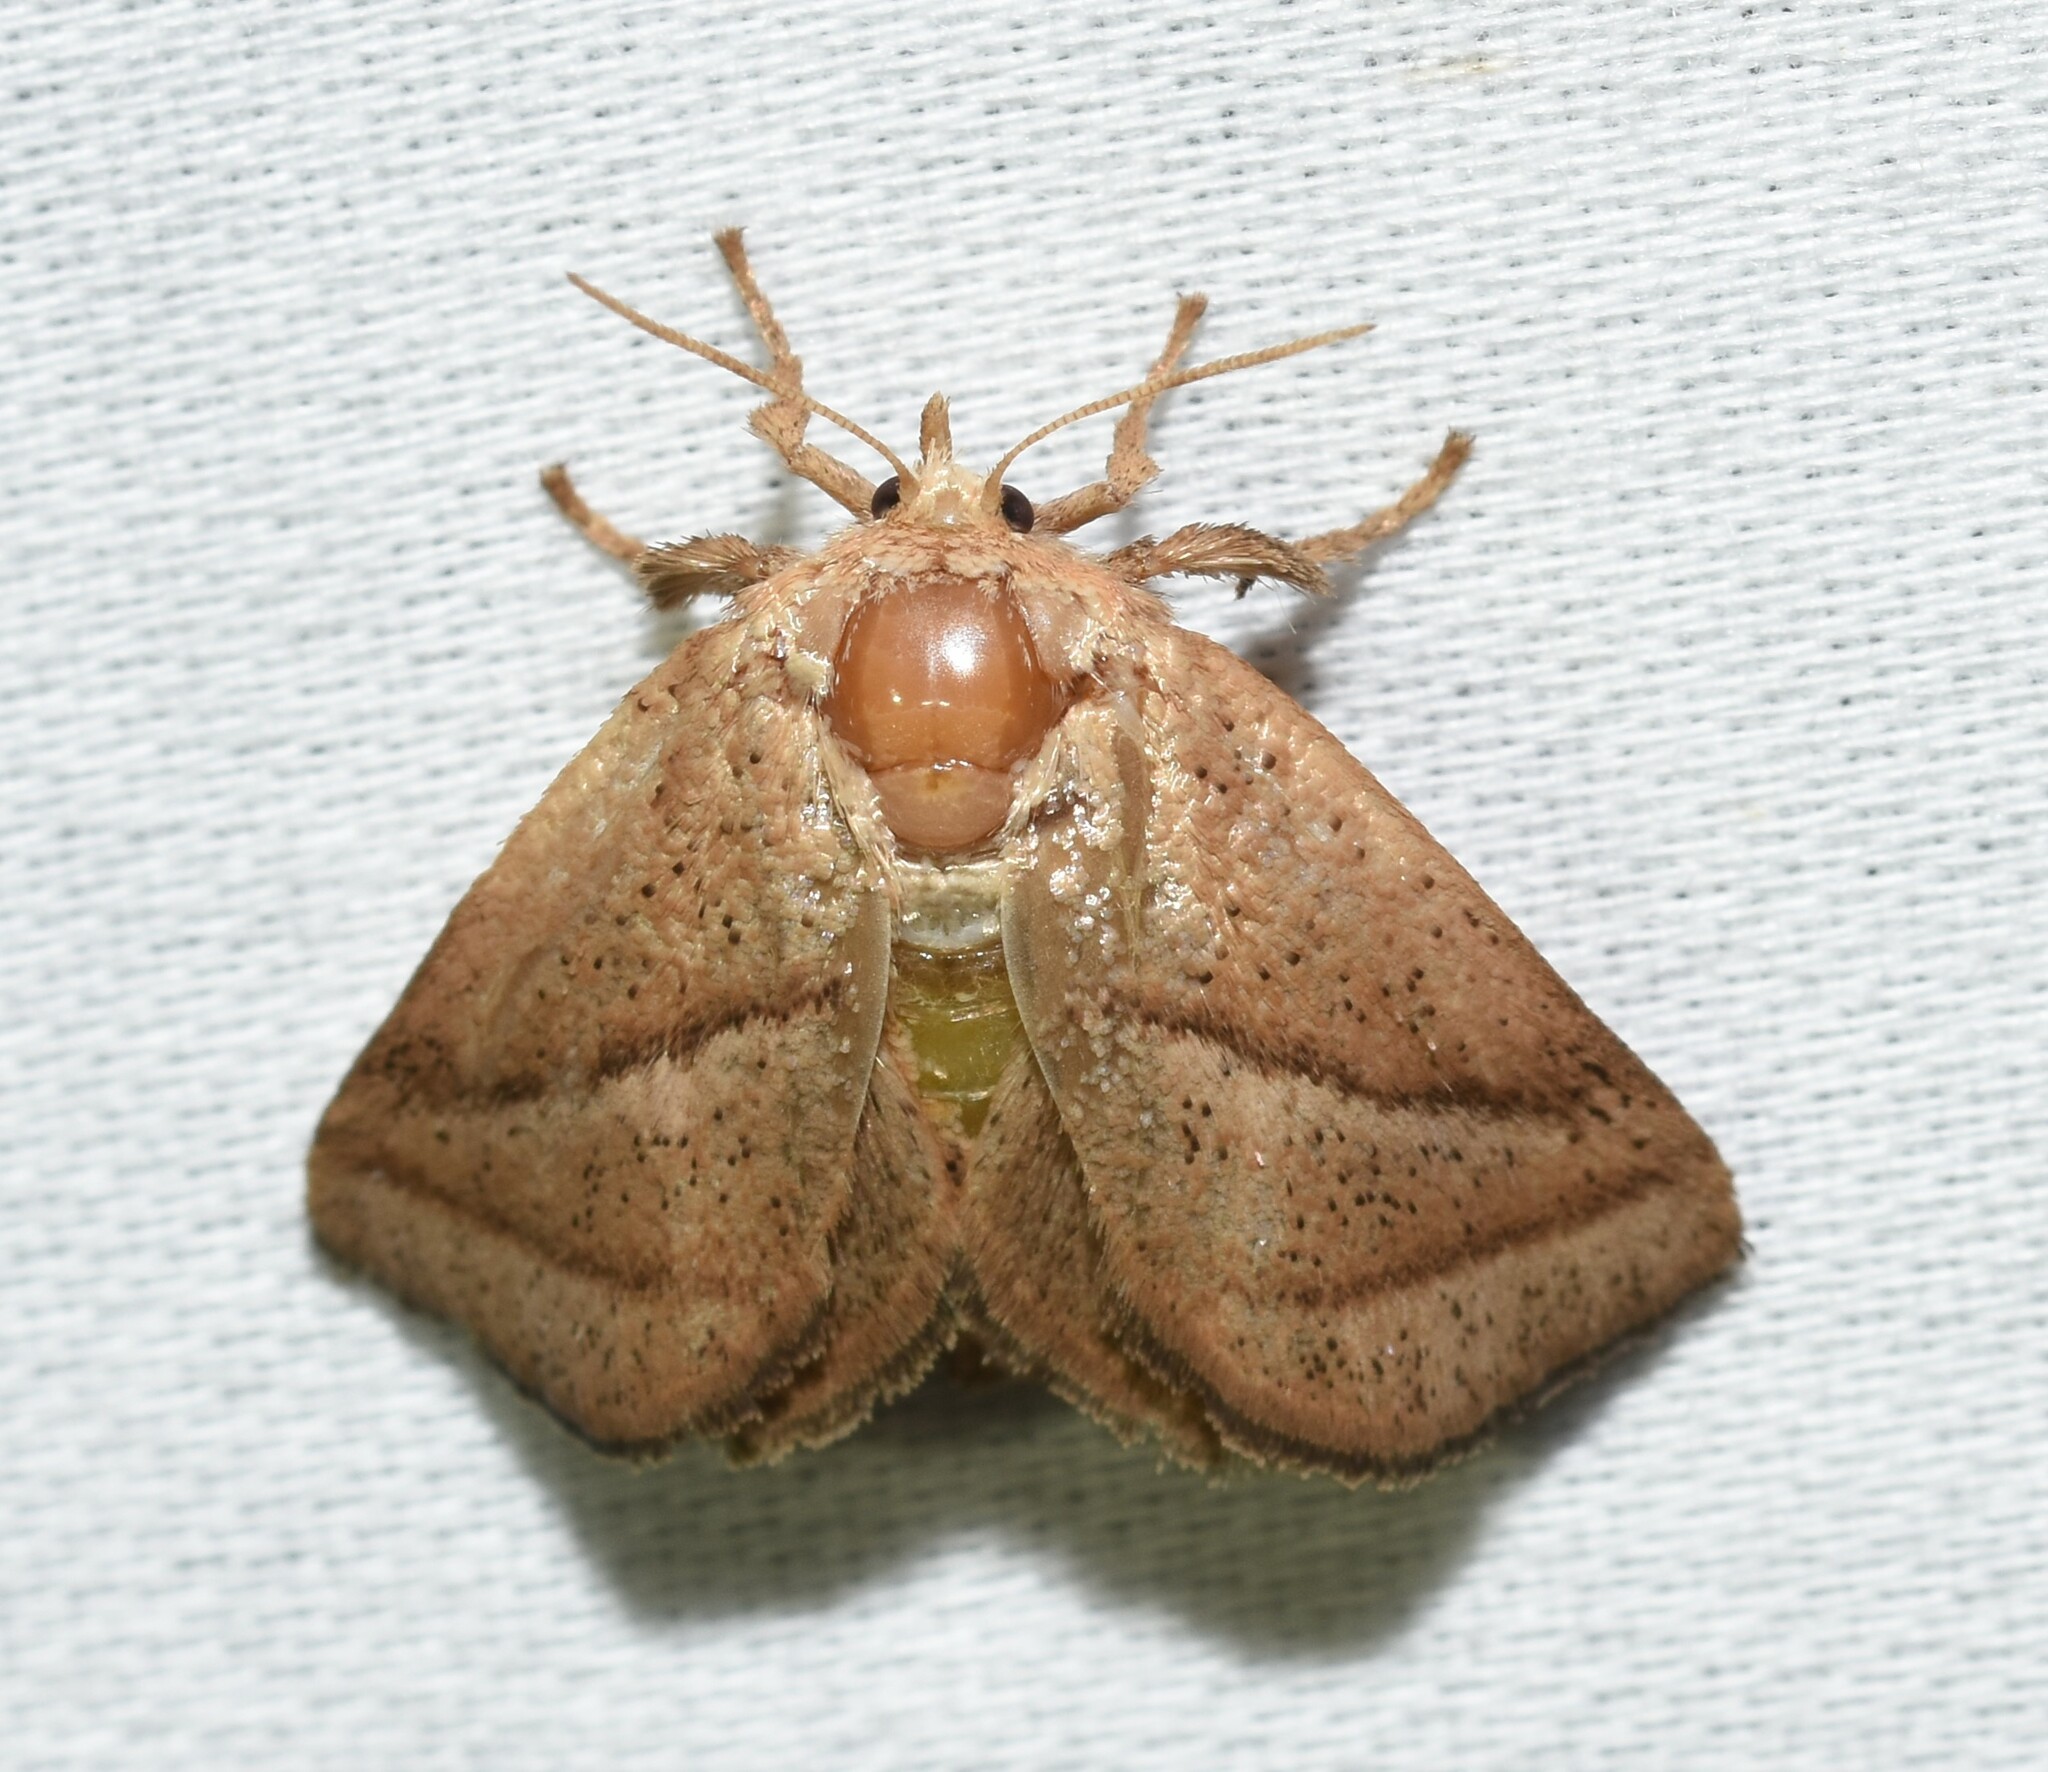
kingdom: Animalia
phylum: Arthropoda
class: Insecta
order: Lepidoptera
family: Limacodidae
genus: Natada
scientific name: Natada nasoni
